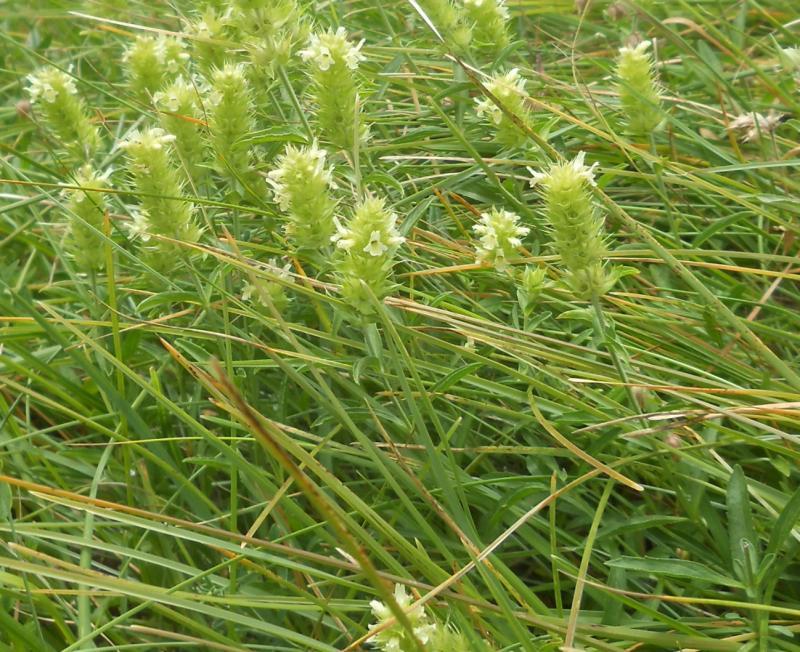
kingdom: Plantae
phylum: Tracheophyta
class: Magnoliopsida
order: Lamiales
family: Lamiaceae
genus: Sideritis
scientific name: Sideritis hyssopifolia
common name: Mountain tea
